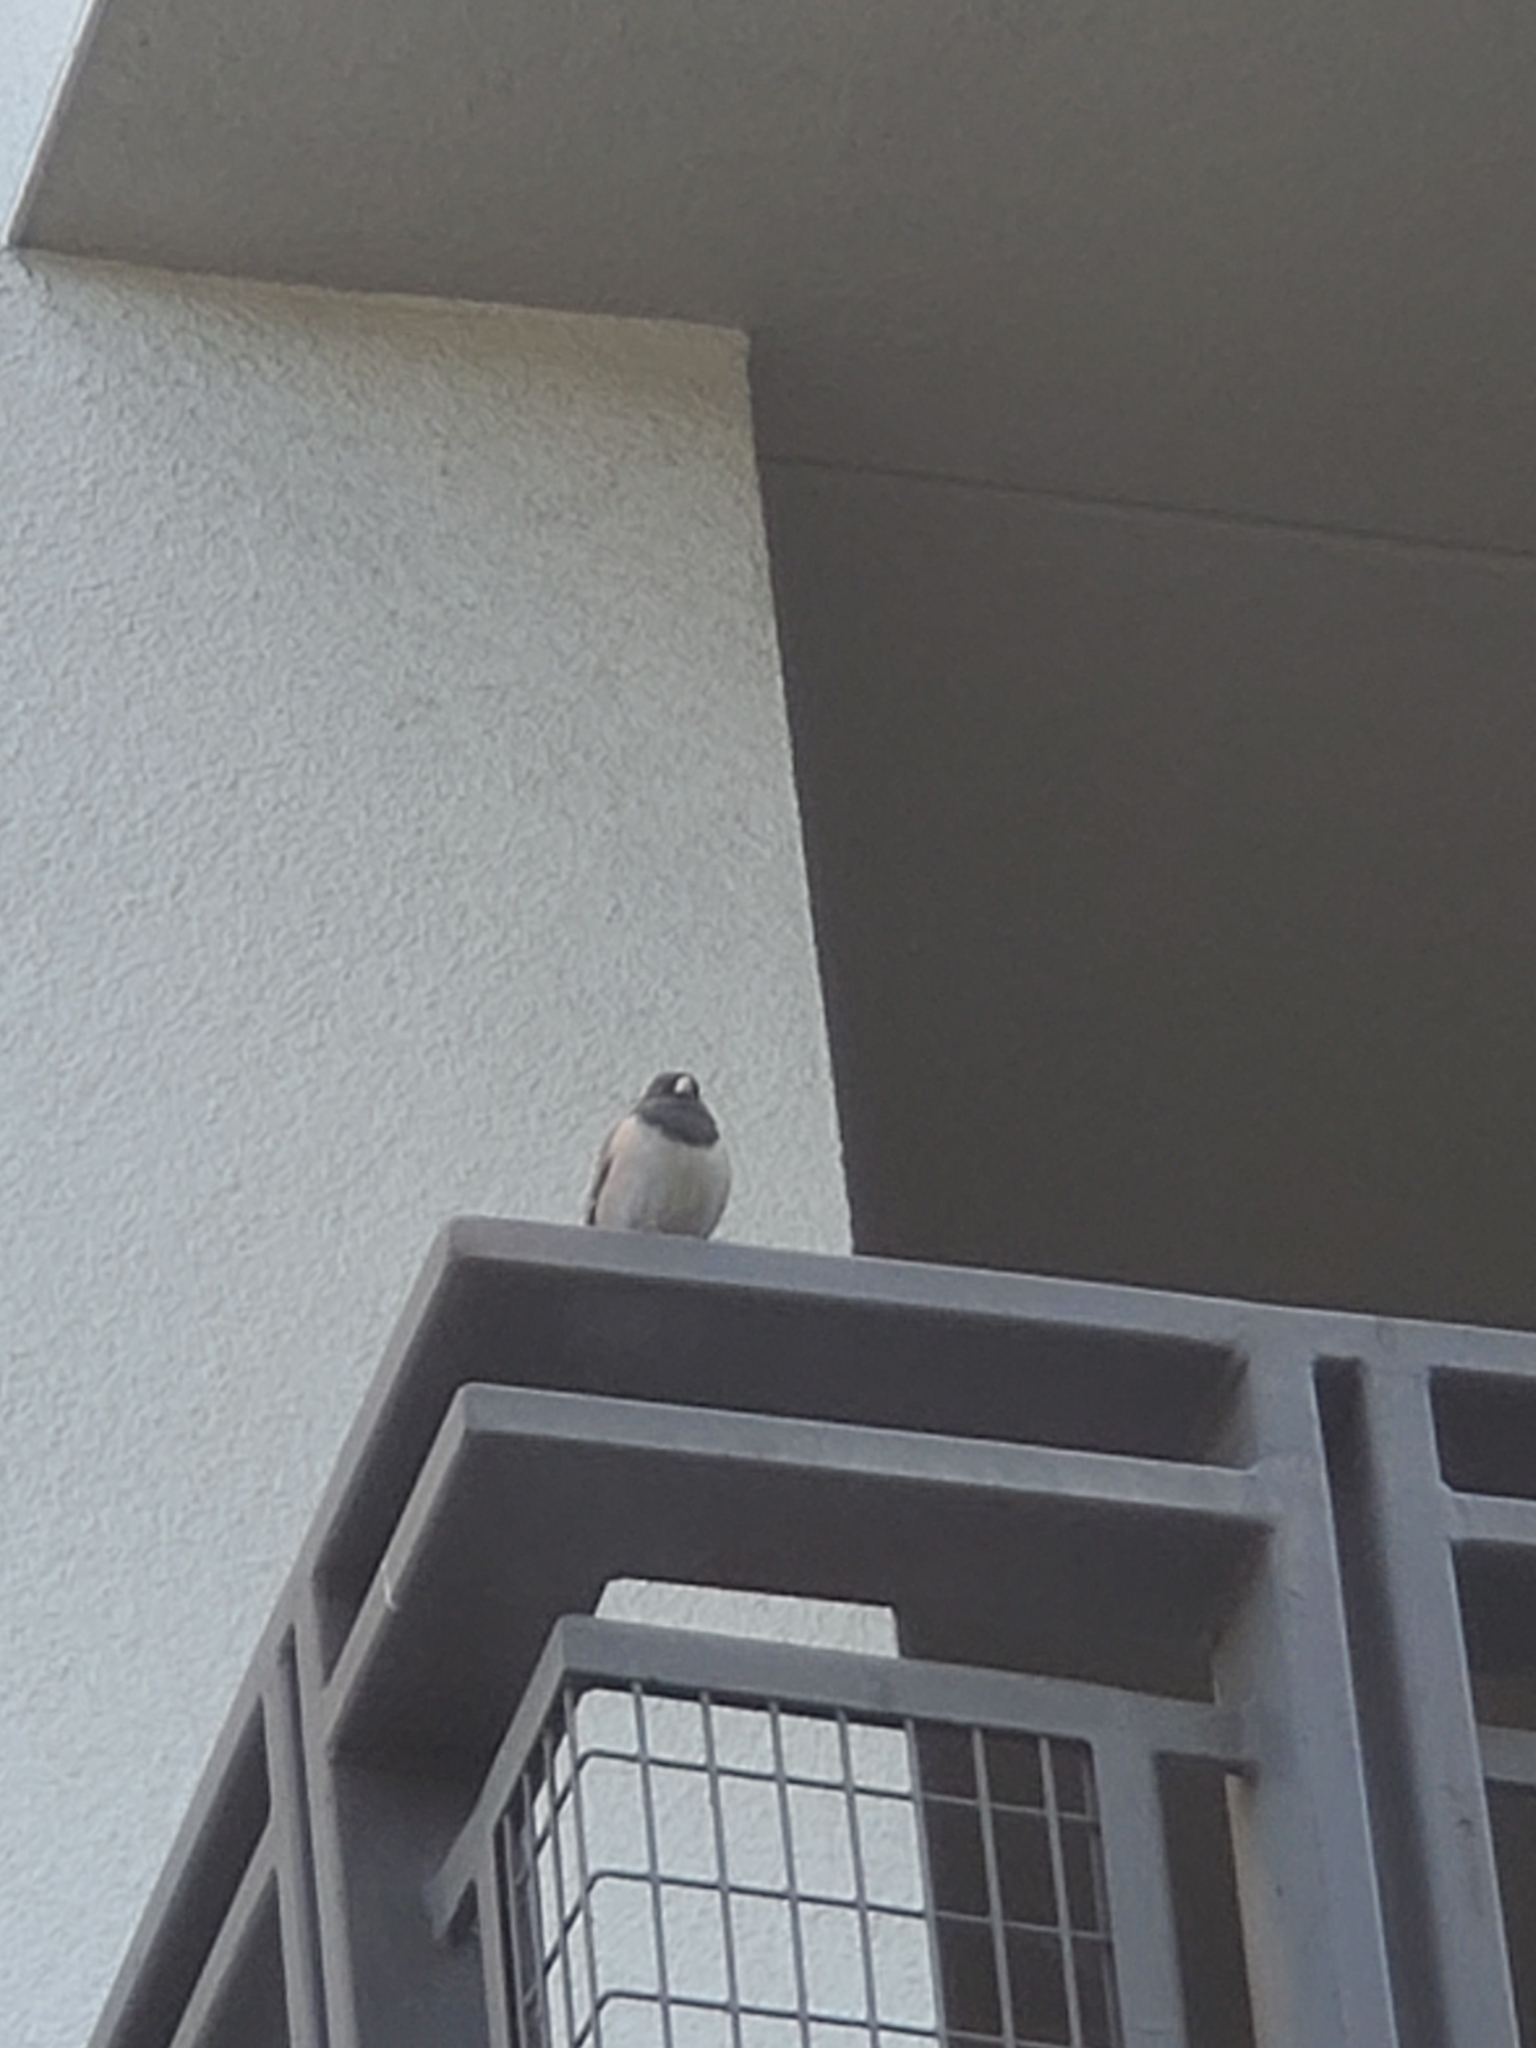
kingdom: Animalia
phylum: Chordata
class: Aves
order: Passeriformes
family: Passerellidae
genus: Junco
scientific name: Junco hyemalis
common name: Dark-eyed junco
